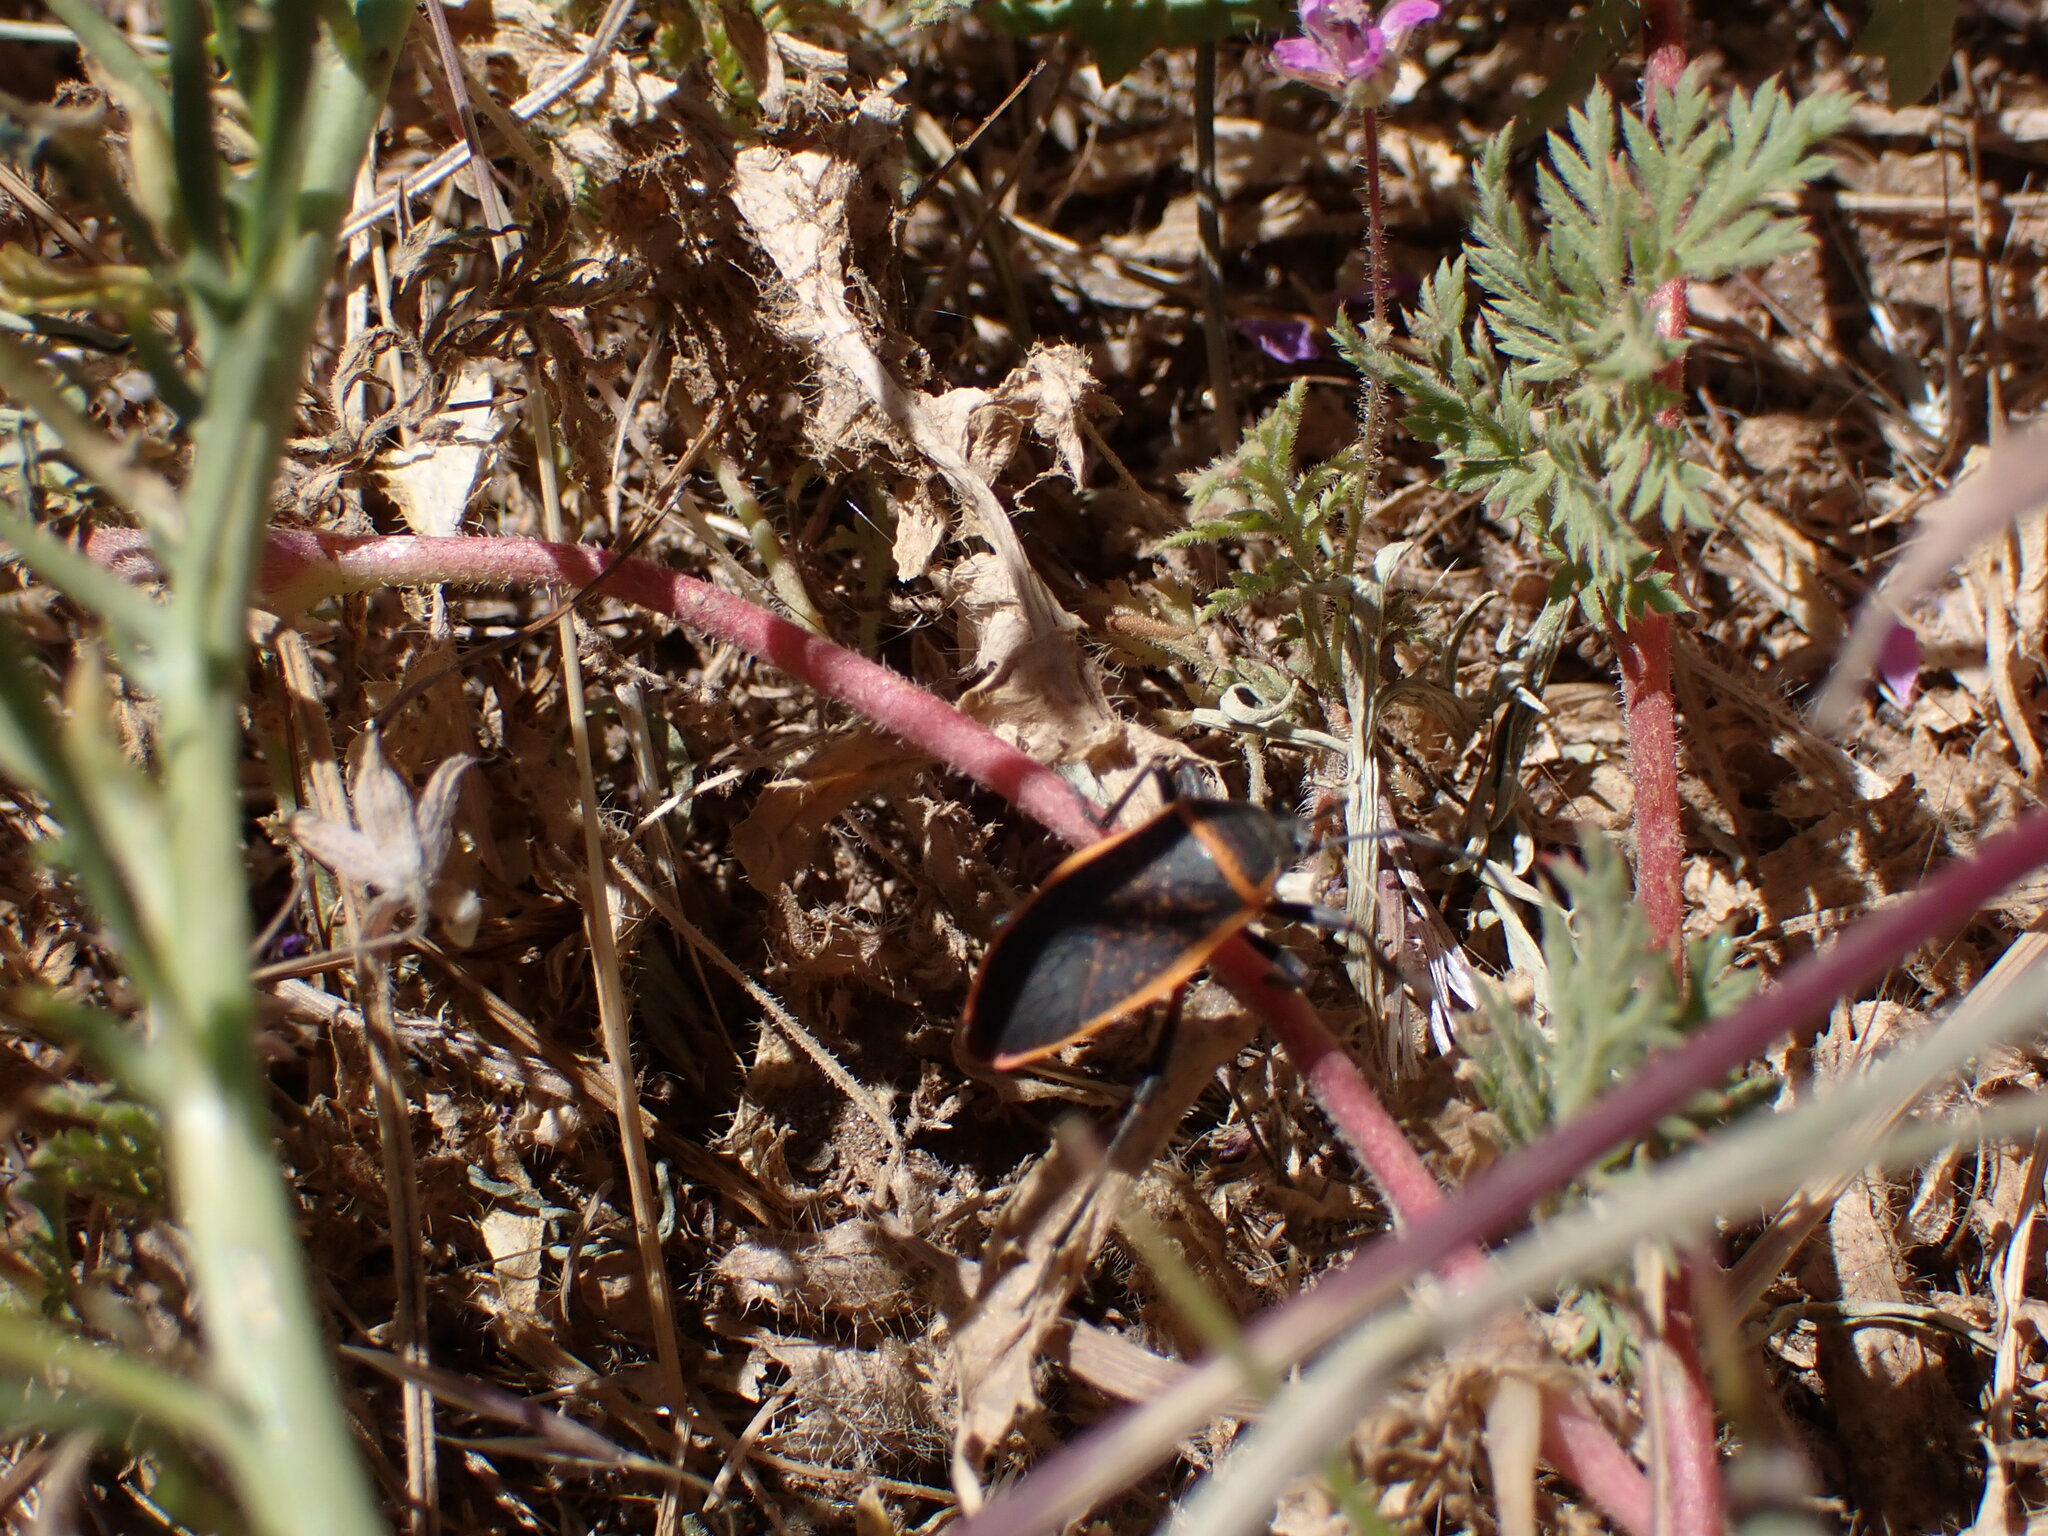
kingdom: Animalia
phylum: Arthropoda
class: Insecta
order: Hemiptera
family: Largidae
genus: Largus
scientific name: Largus californicus
